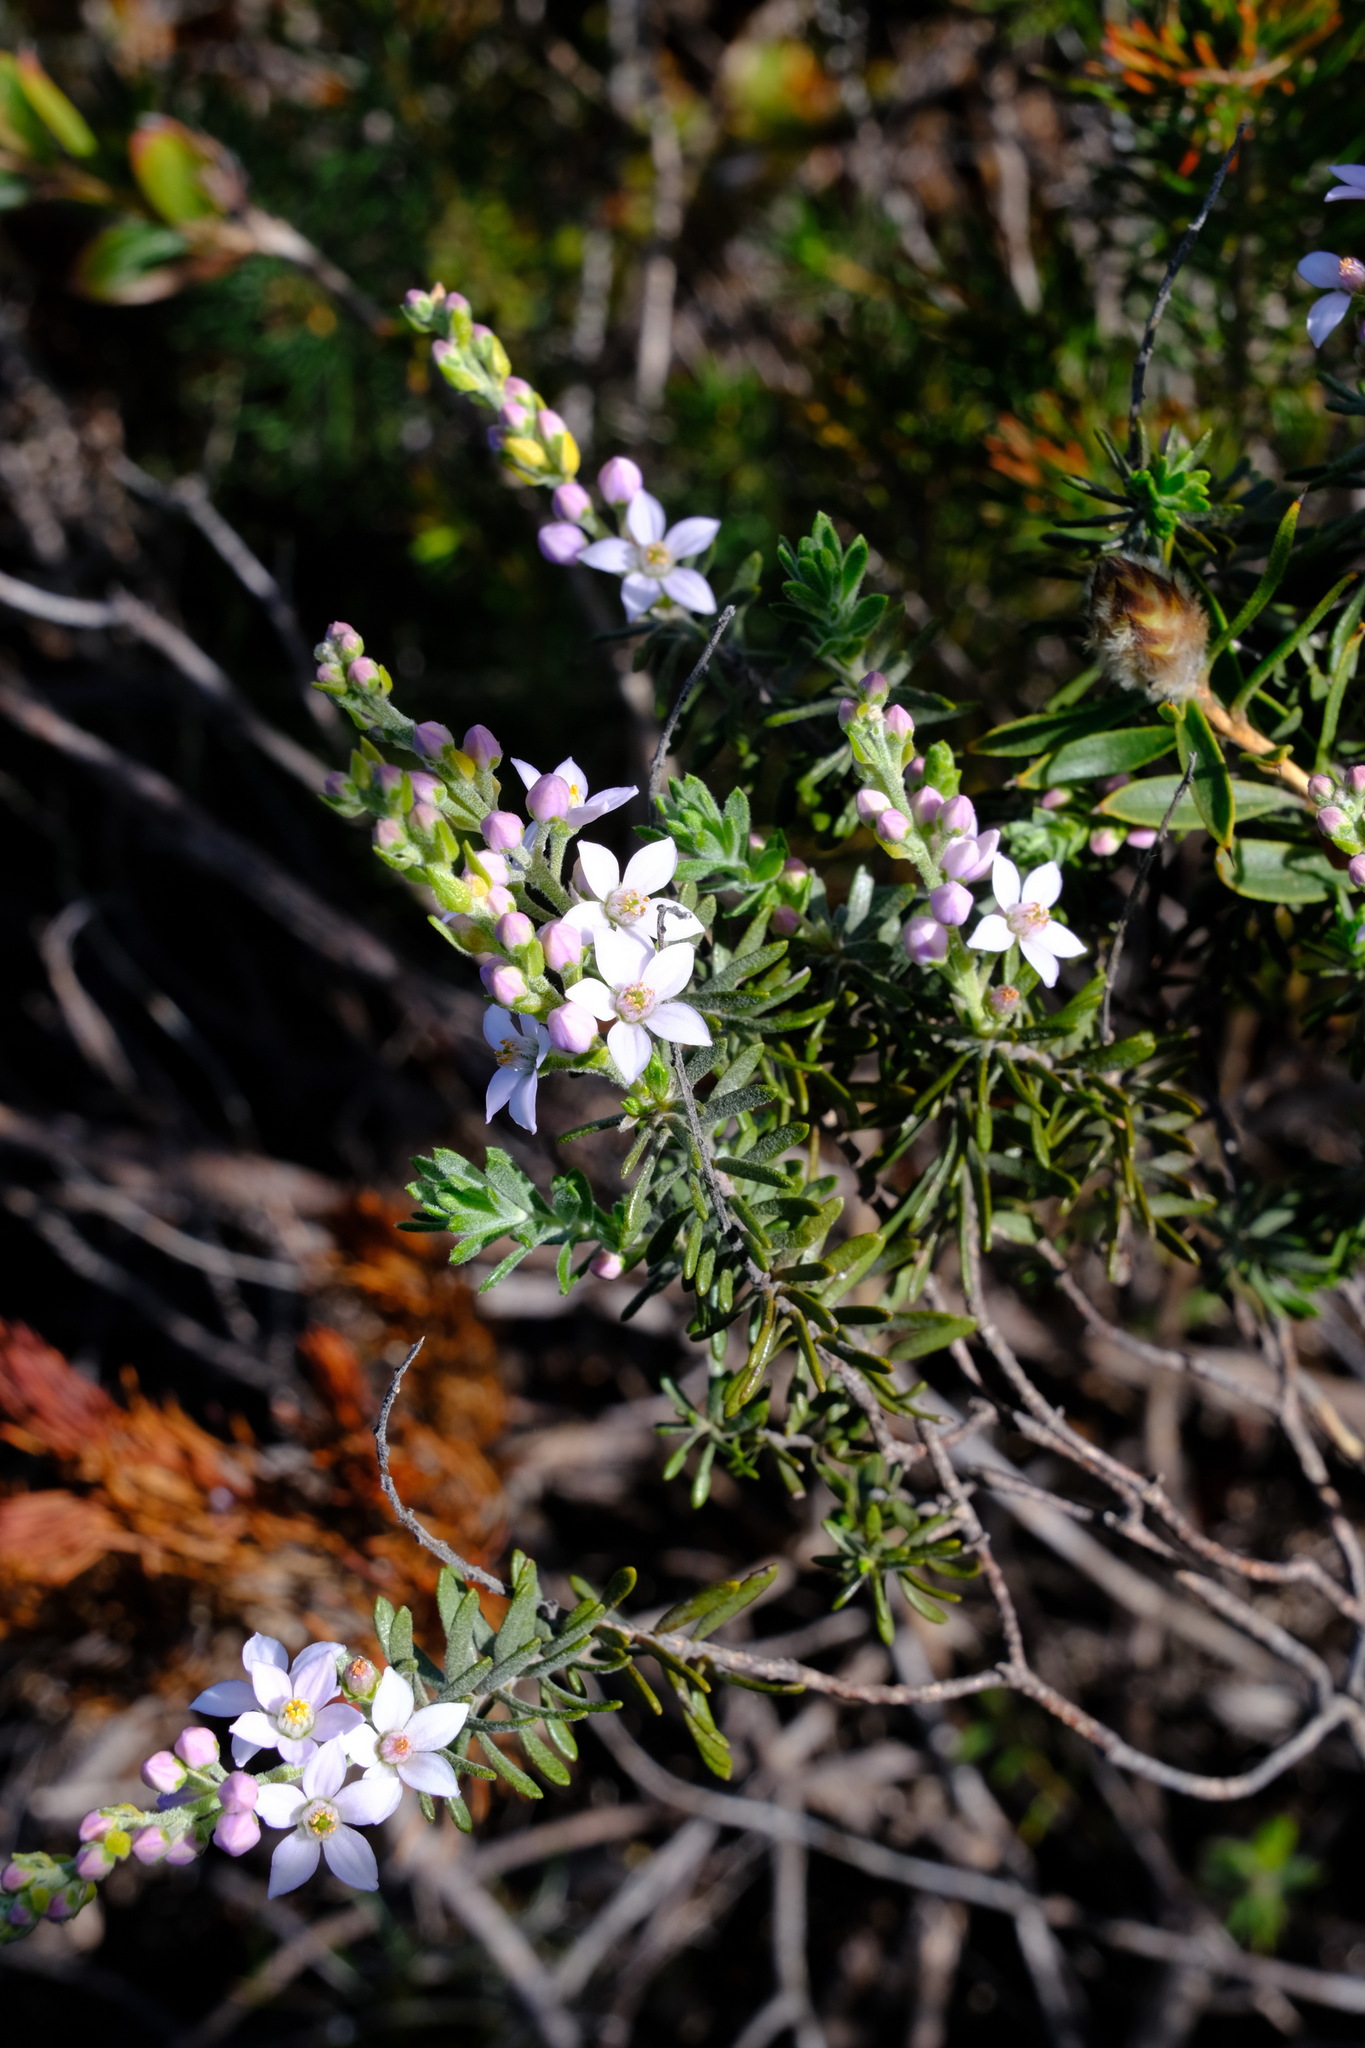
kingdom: Plantae
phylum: Tracheophyta
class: Magnoliopsida
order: Sapindales
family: Rutaceae
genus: Philotheca
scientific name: Philotheca spicata
